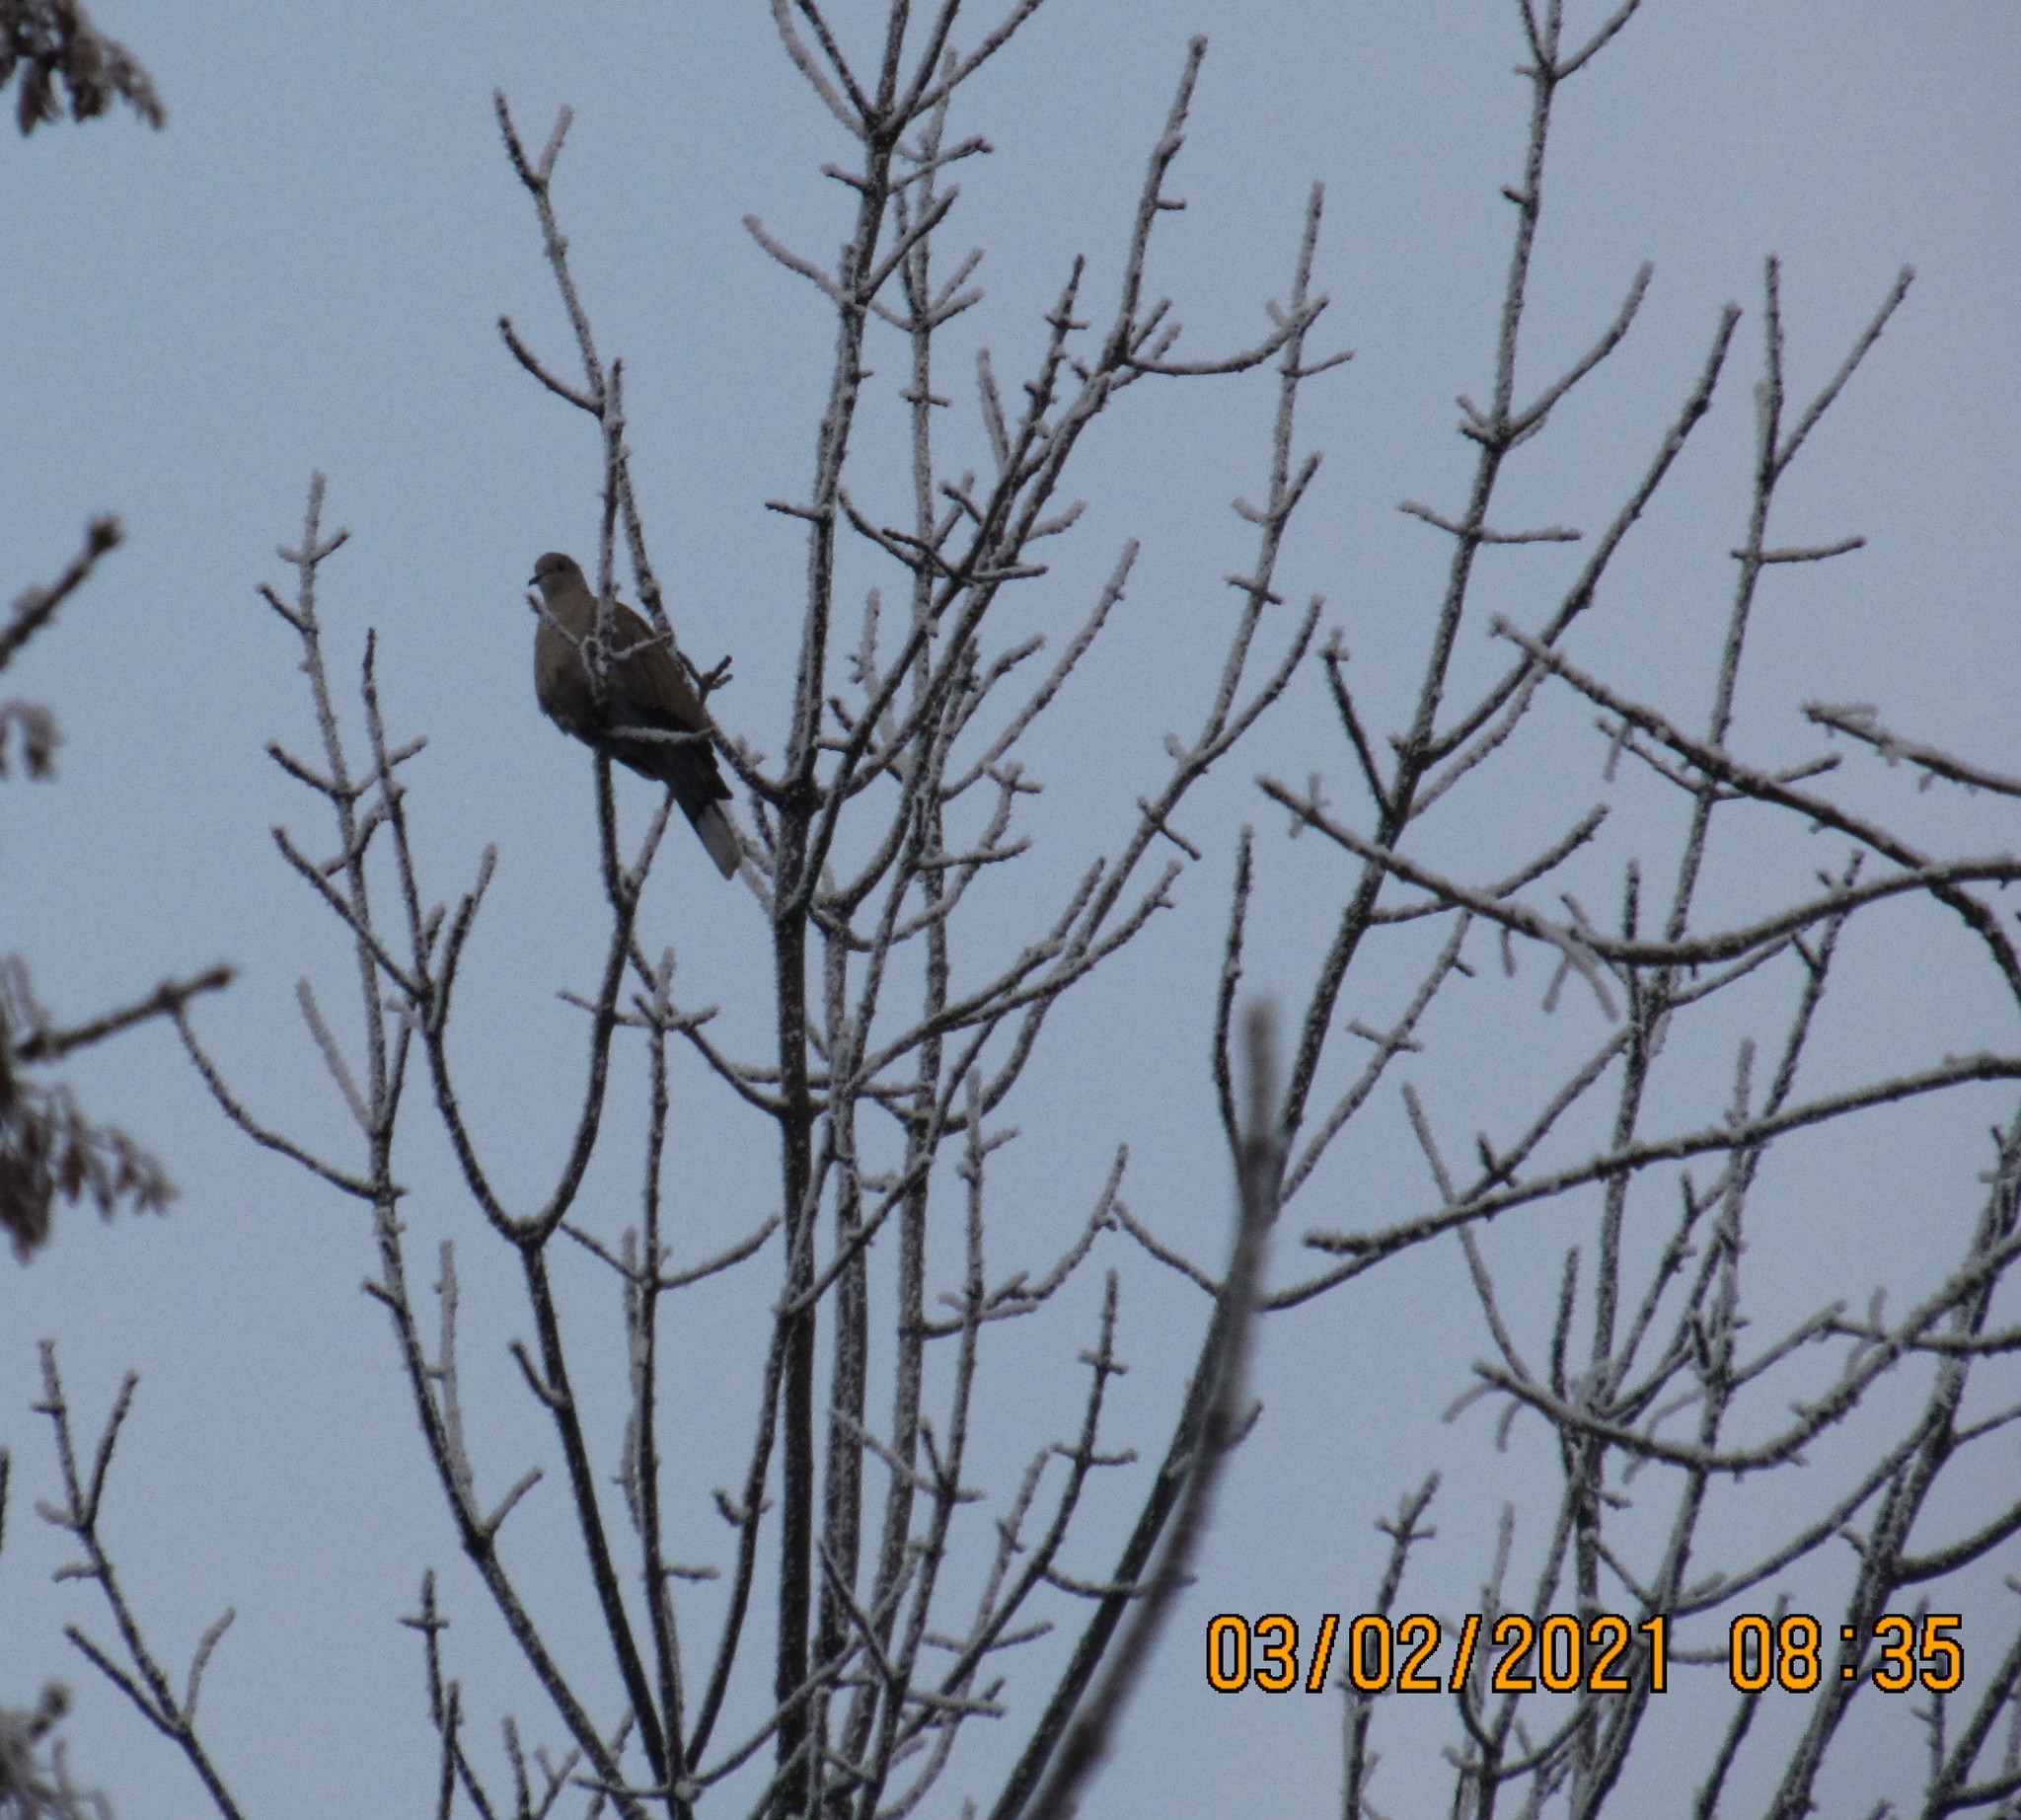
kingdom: Animalia
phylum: Chordata
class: Aves
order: Columbiformes
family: Columbidae
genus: Streptopelia
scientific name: Streptopelia decaocto
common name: Eurasian collared dove
